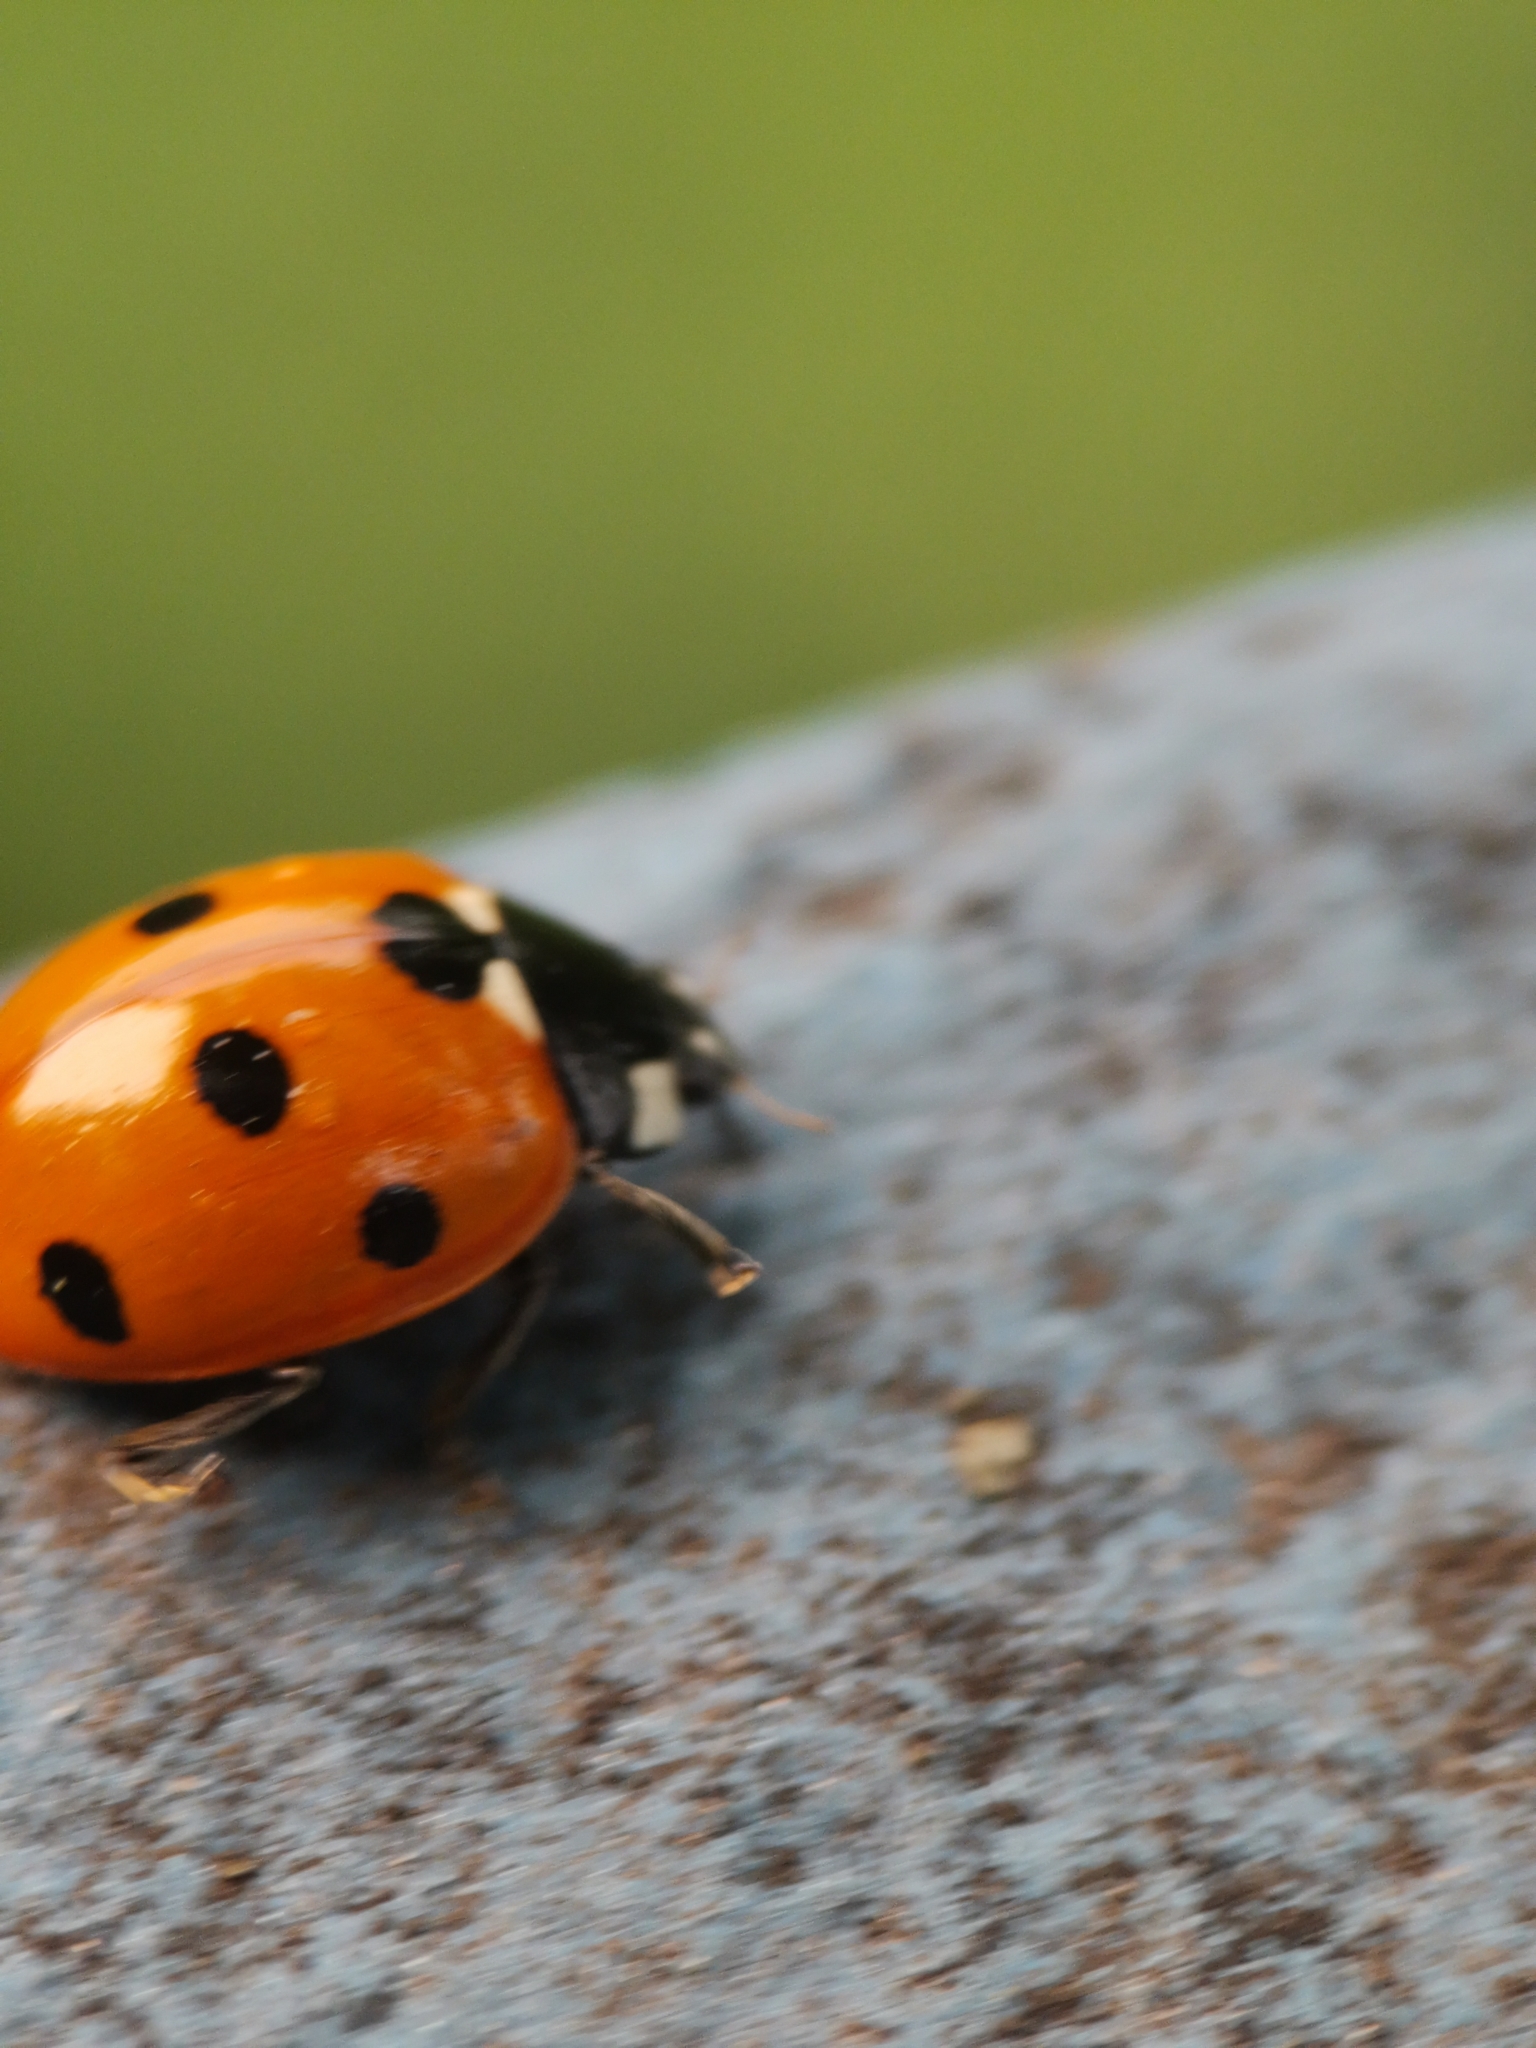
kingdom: Animalia
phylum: Arthropoda
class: Insecta
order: Coleoptera
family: Coccinellidae
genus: Coccinella
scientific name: Coccinella septempunctata
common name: Sevenspotted lady beetle
